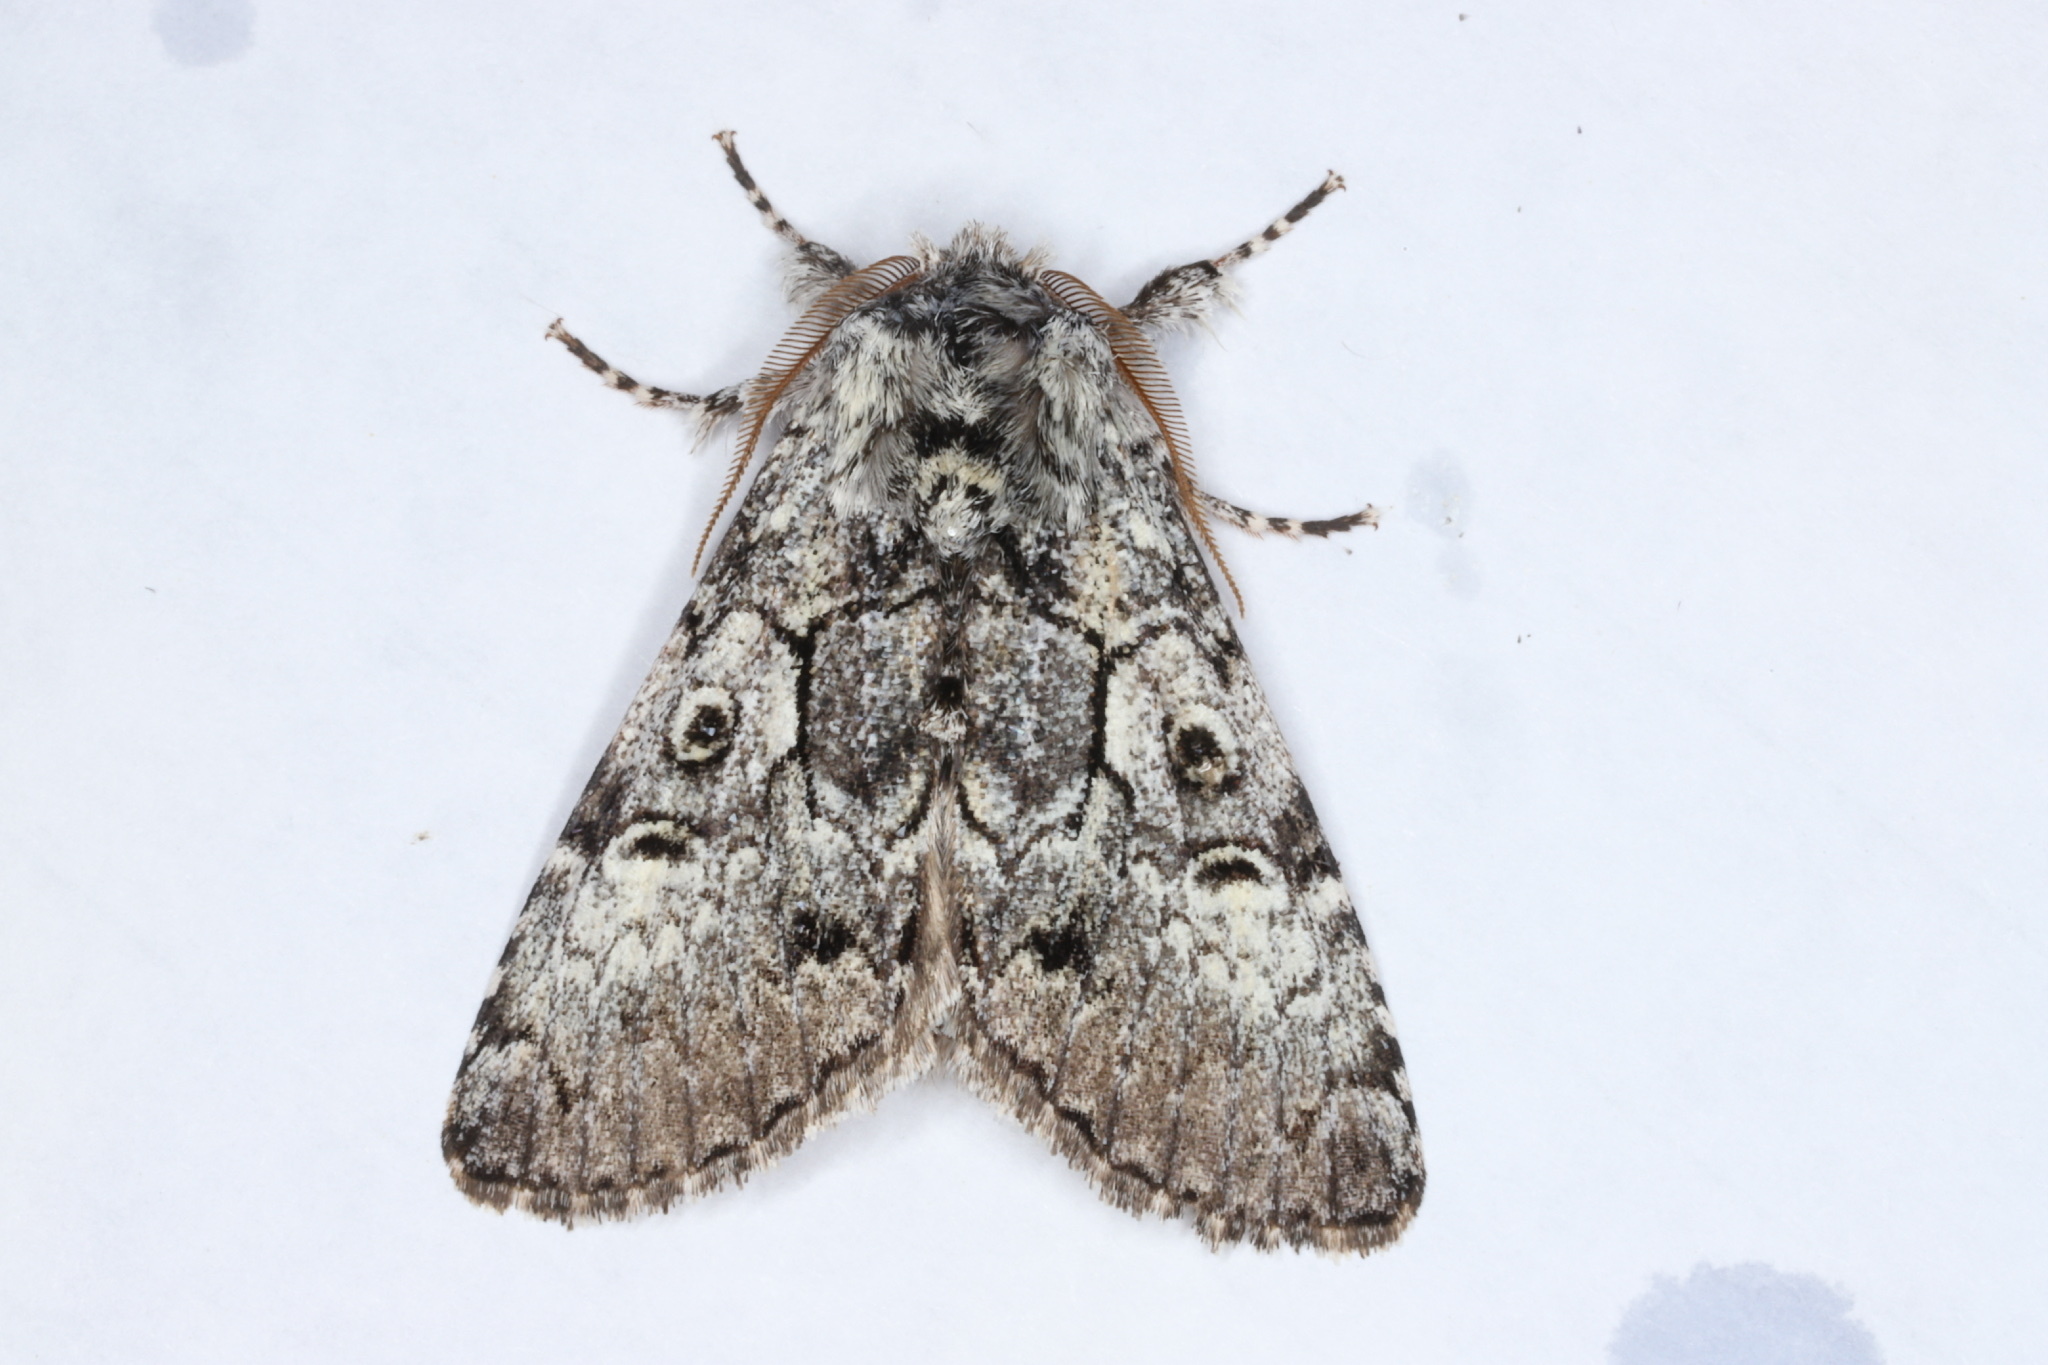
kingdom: Animalia
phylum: Arthropoda
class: Insecta
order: Lepidoptera
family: Noctuidae
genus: Charadra
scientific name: Charadra deridens
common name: Marbled tuffet
